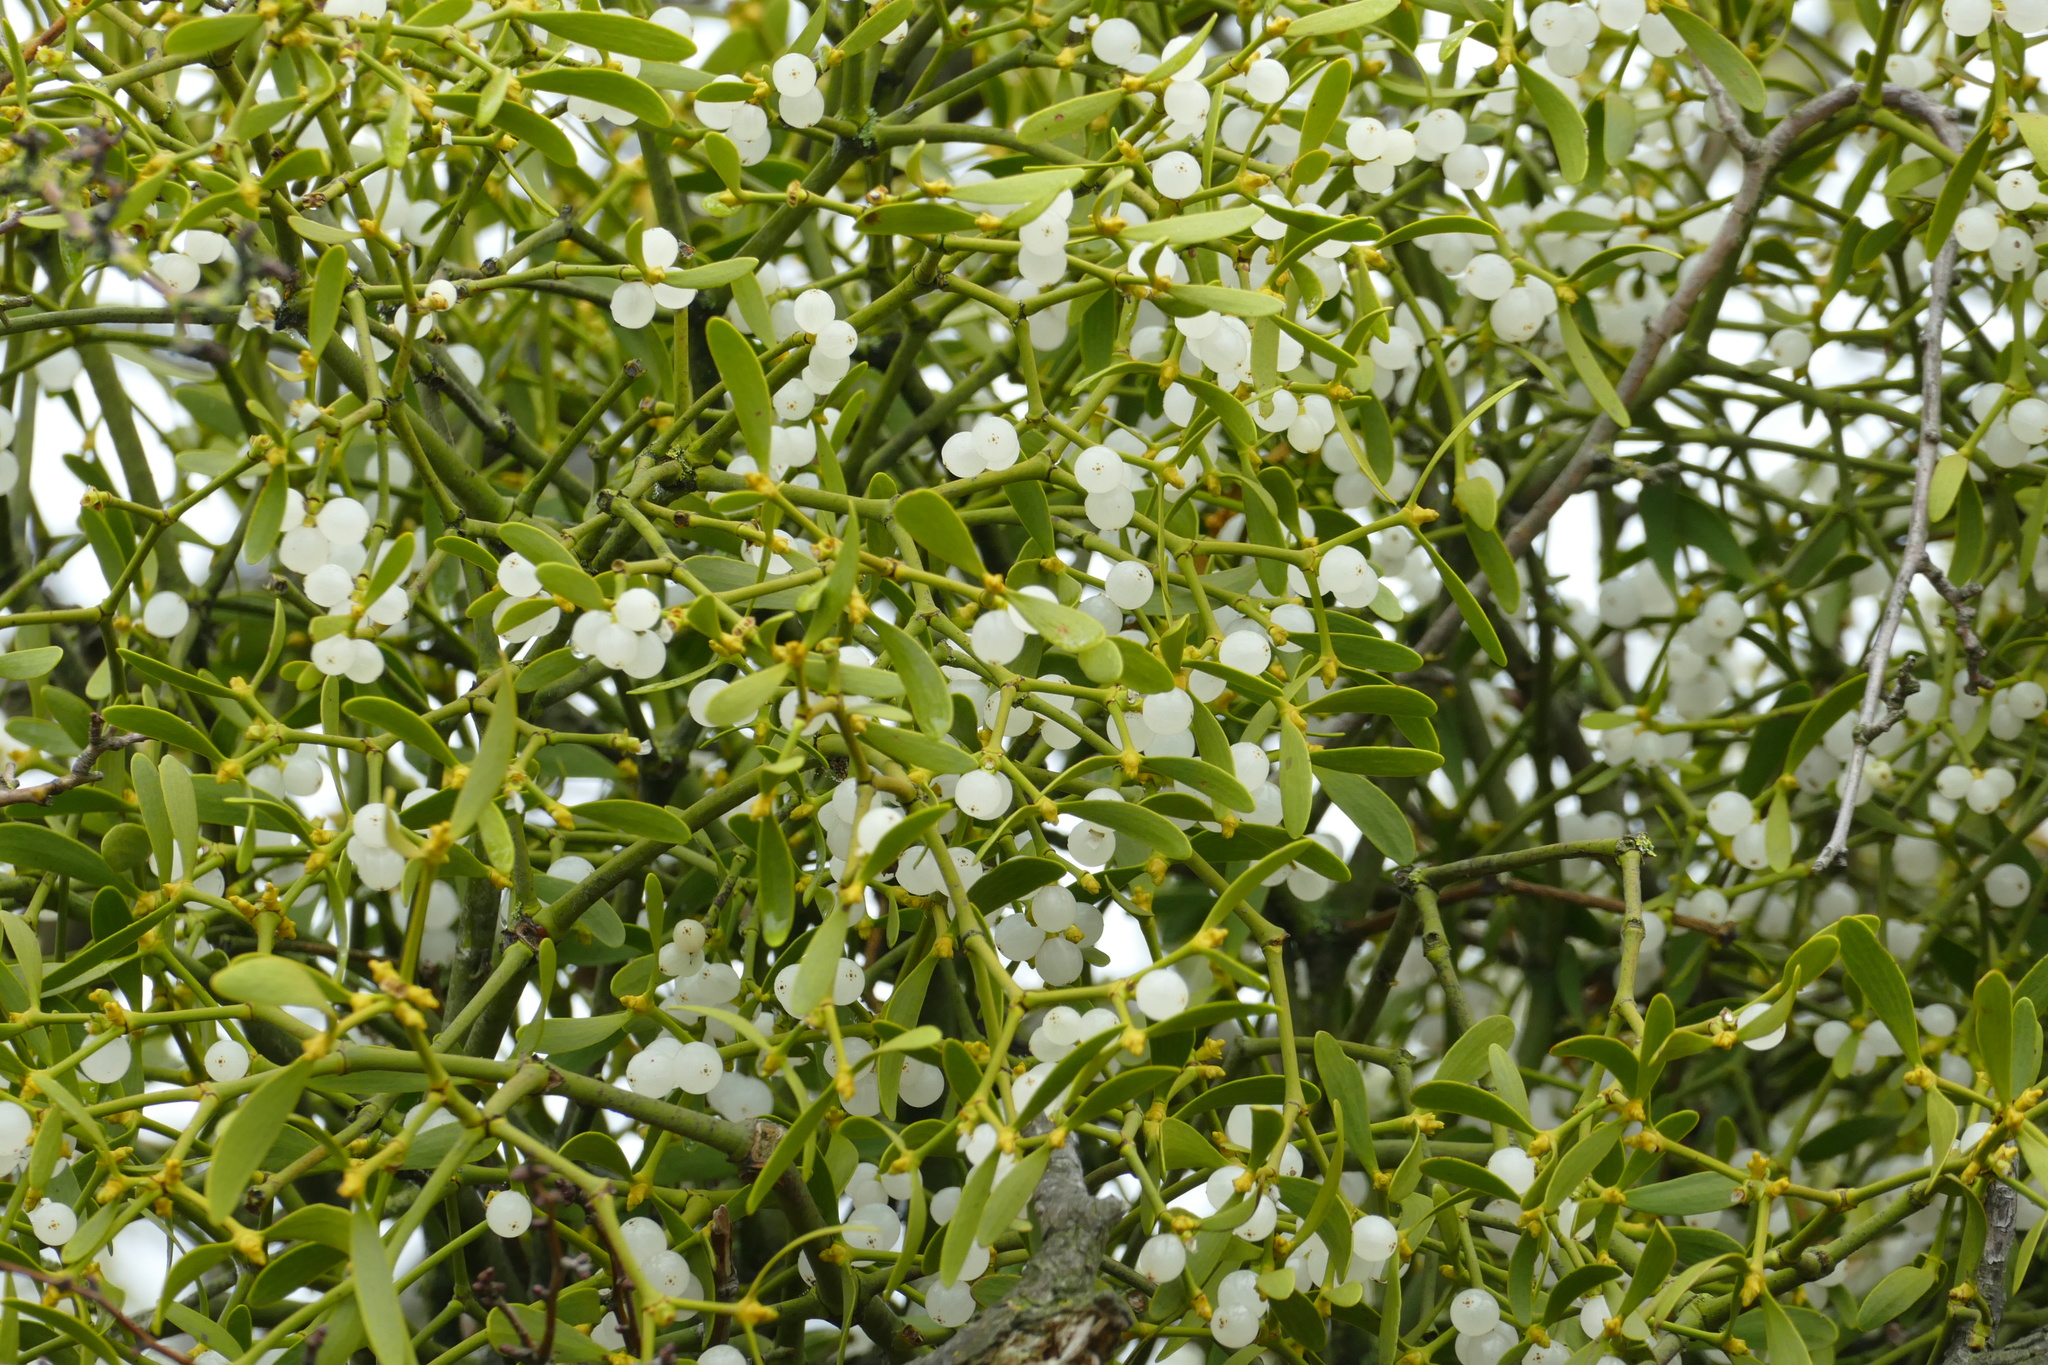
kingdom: Plantae
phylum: Tracheophyta
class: Magnoliopsida
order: Santalales
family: Viscaceae
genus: Viscum
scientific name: Viscum album
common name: Mistletoe
